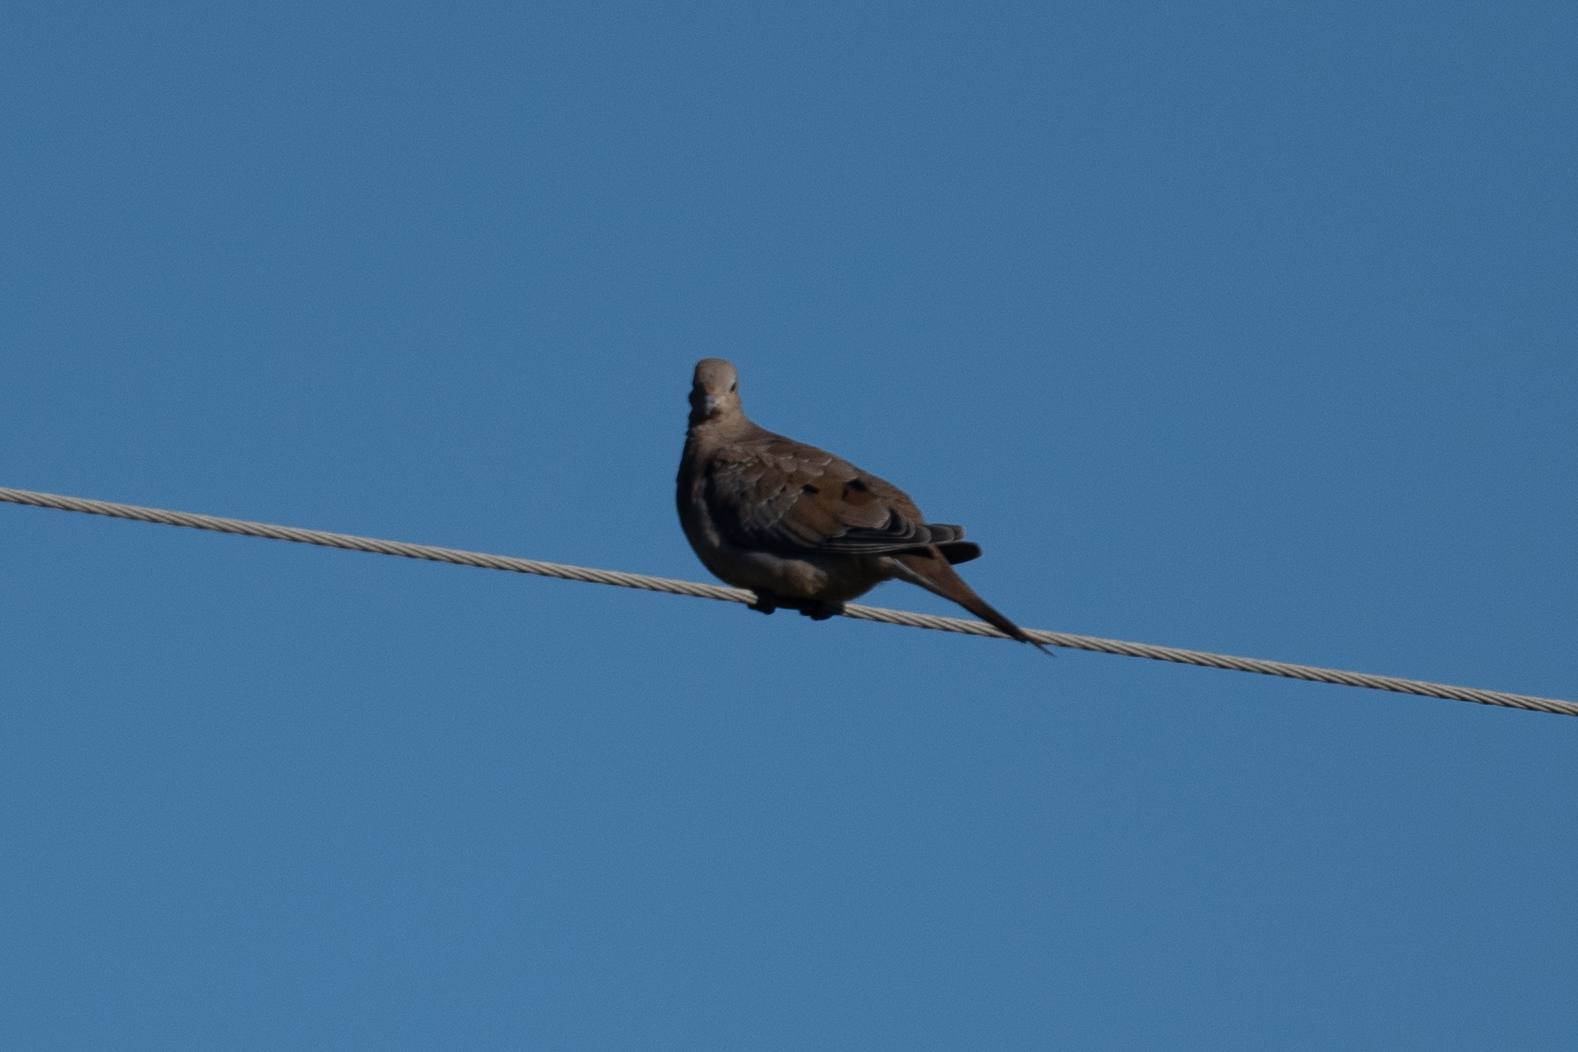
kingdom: Animalia
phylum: Chordata
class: Aves
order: Columbiformes
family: Columbidae
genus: Zenaida
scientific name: Zenaida macroura
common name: Mourning dove
